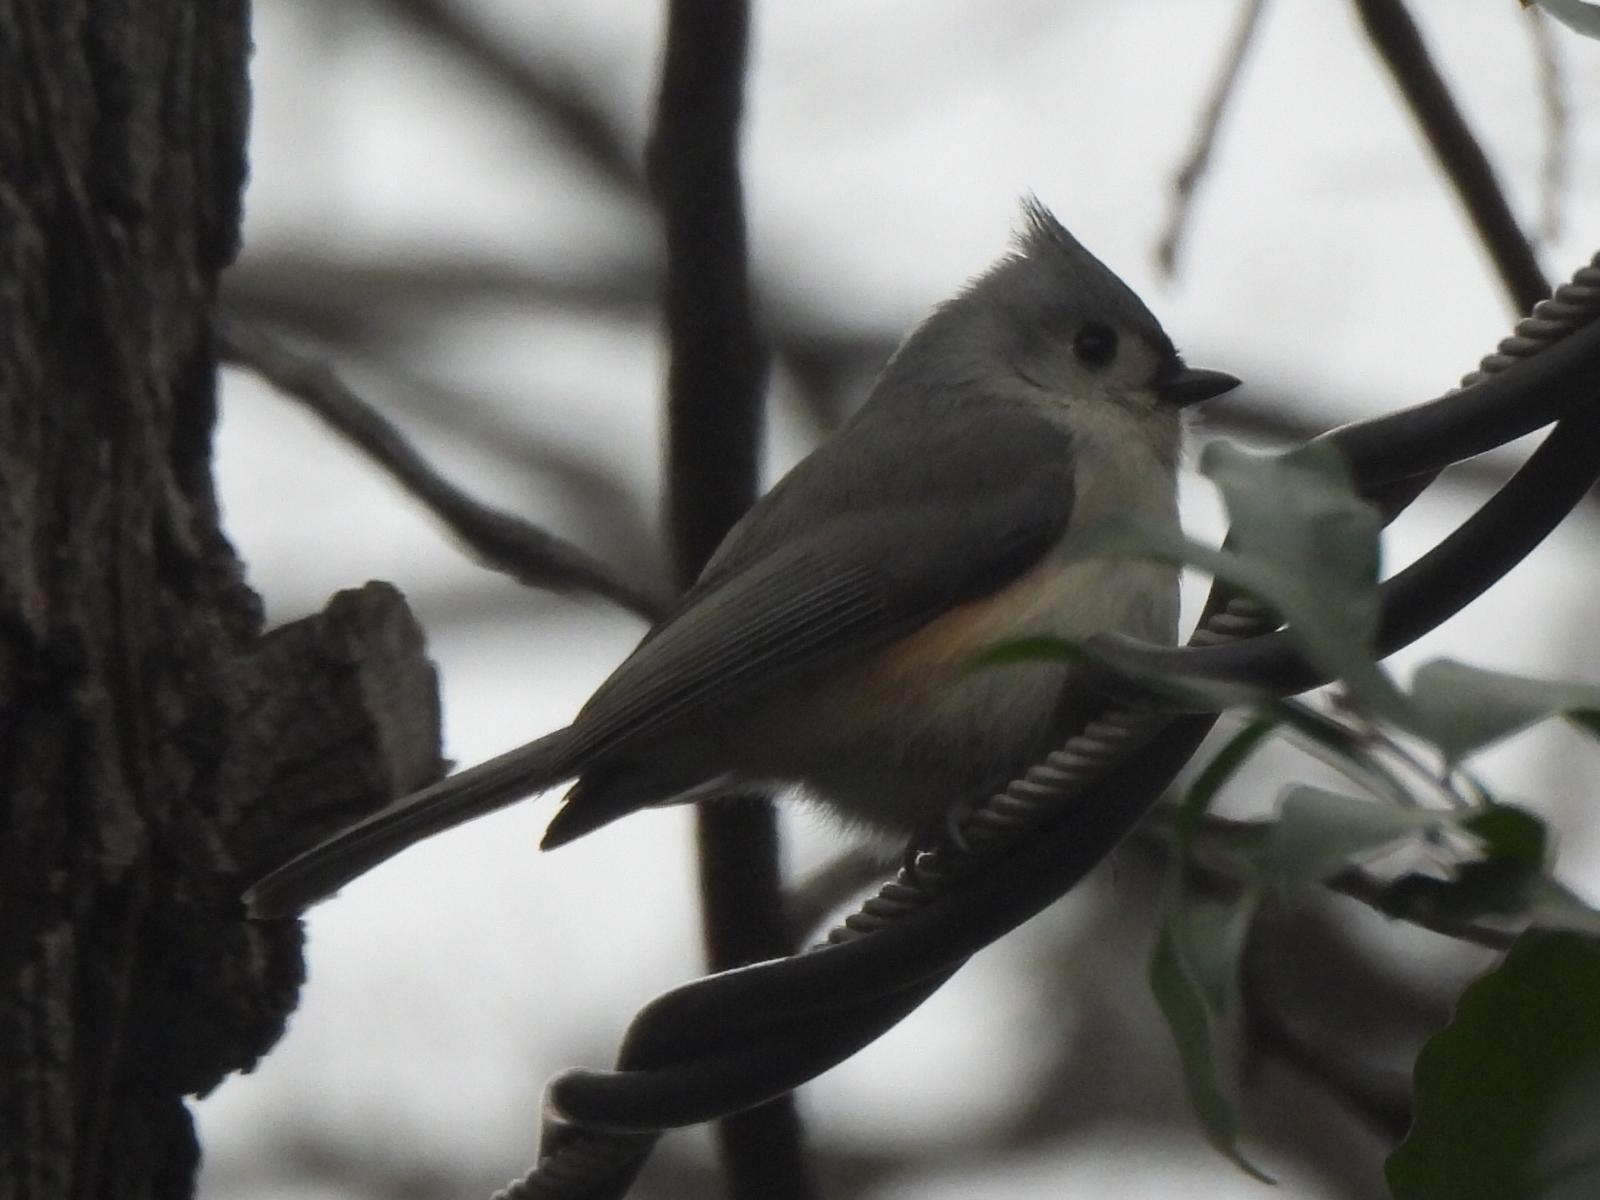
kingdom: Animalia
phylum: Chordata
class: Aves
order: Passeriformes
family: Paridae
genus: Baeolophus
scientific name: Baeolophus bicolor
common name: Tufted titmouse
